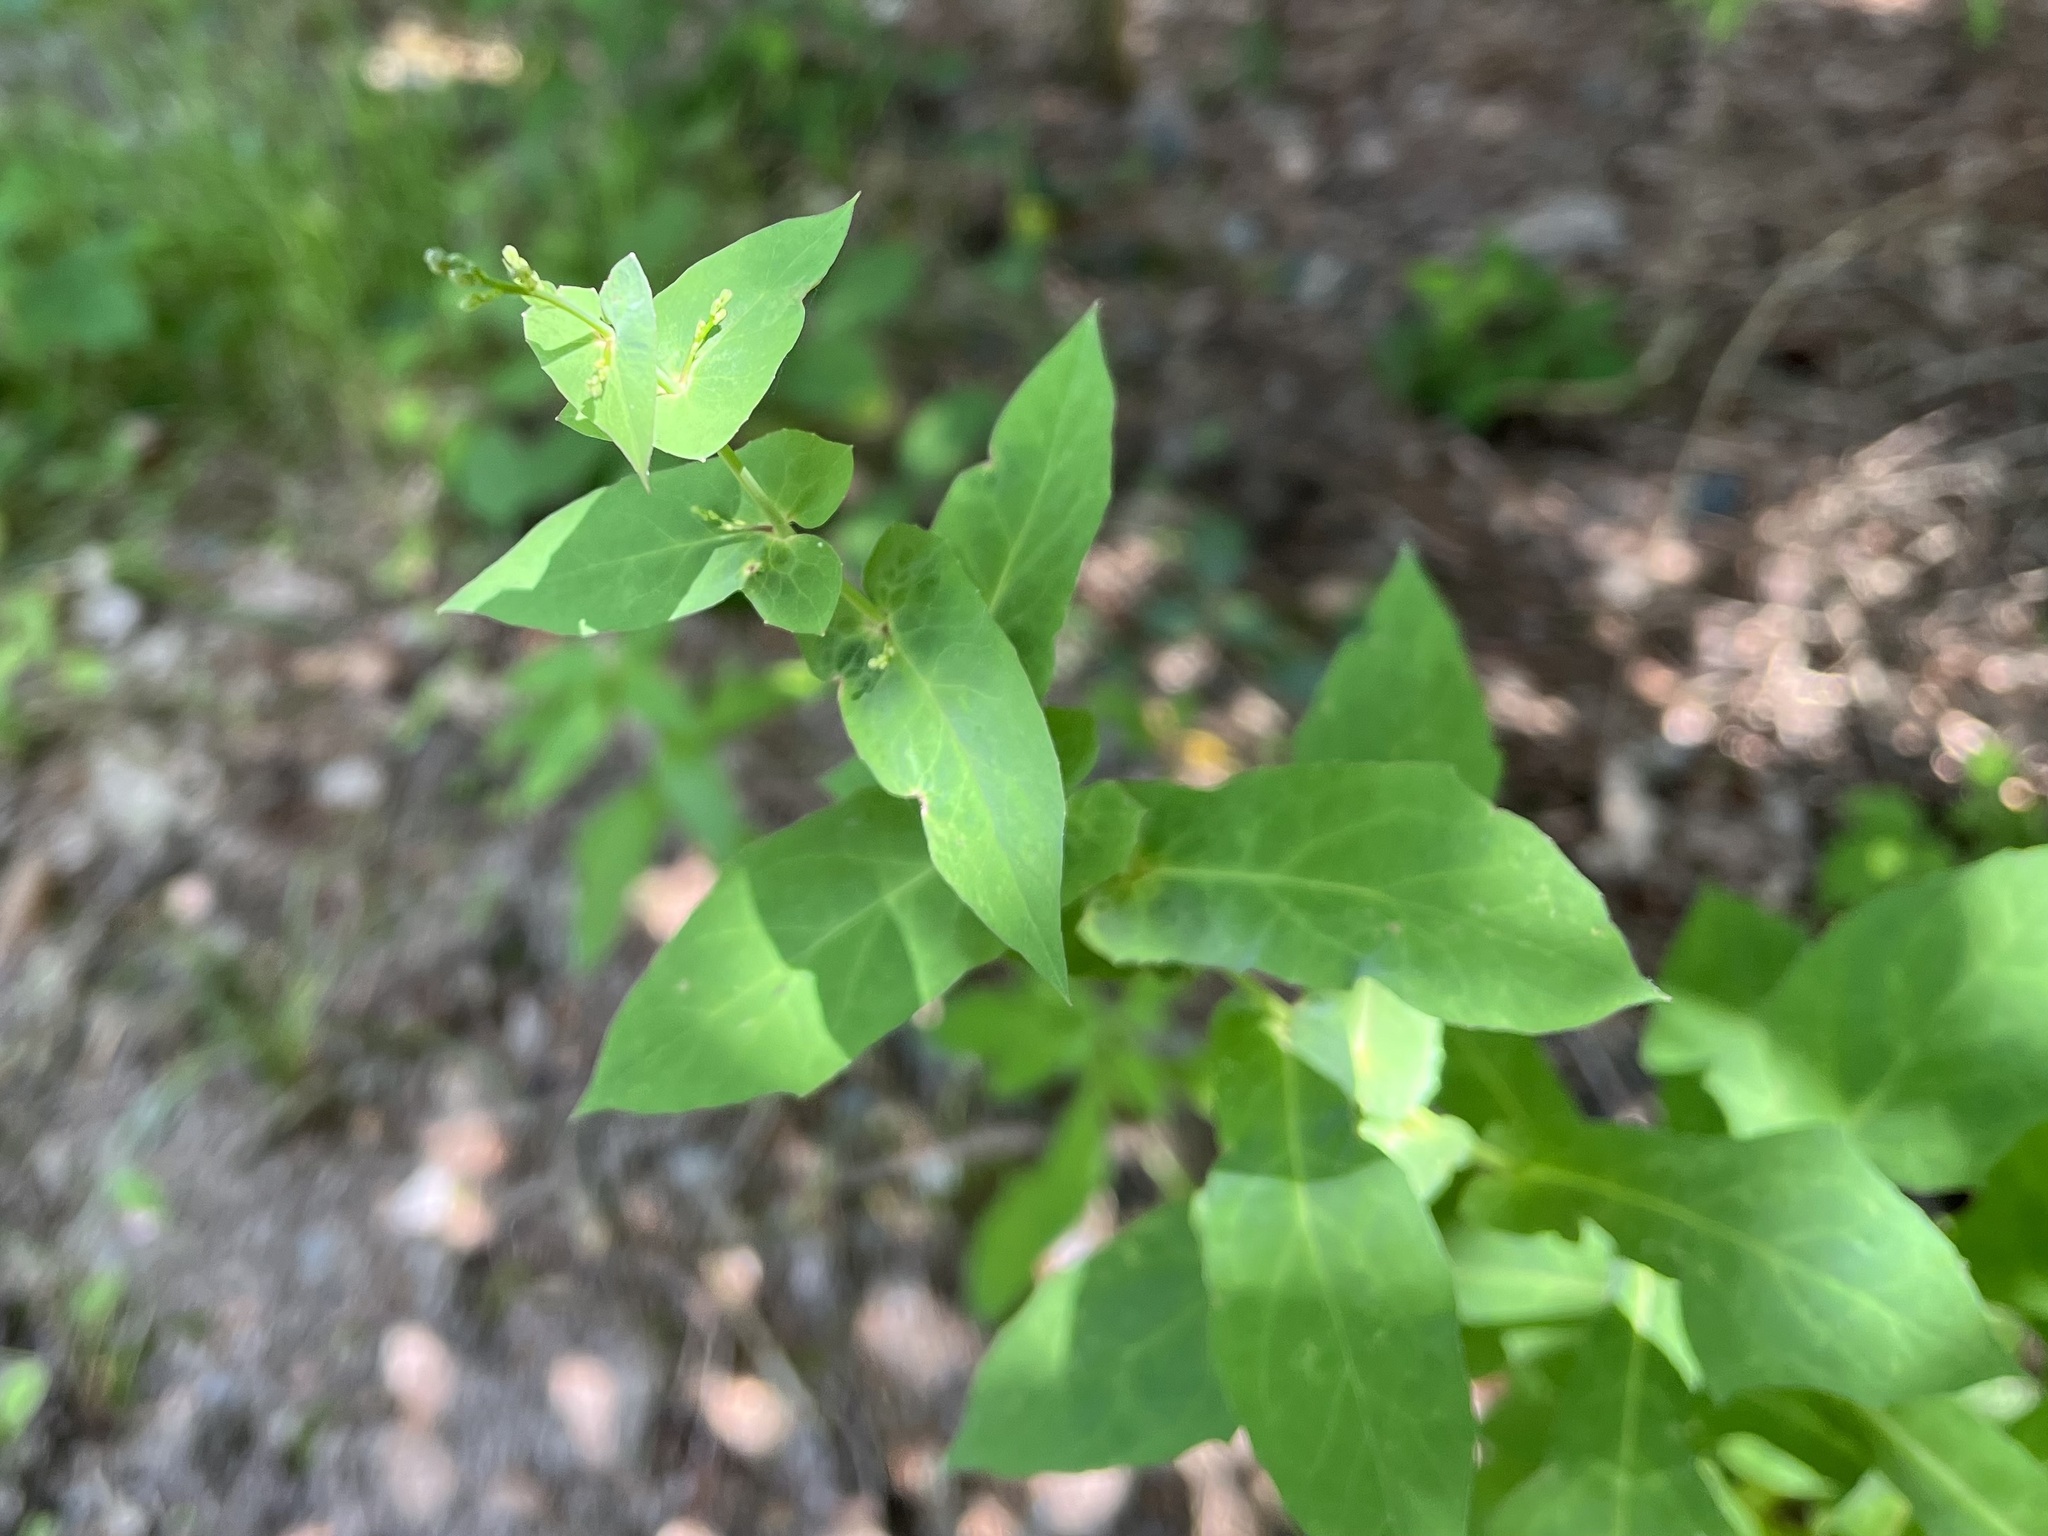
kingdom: Plantae
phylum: Tracheophyta
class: Magnoliopsida
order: Asterales
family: Asteraceae
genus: Prenanthes
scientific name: Prenanthes purpurea
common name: Purple lettuce
